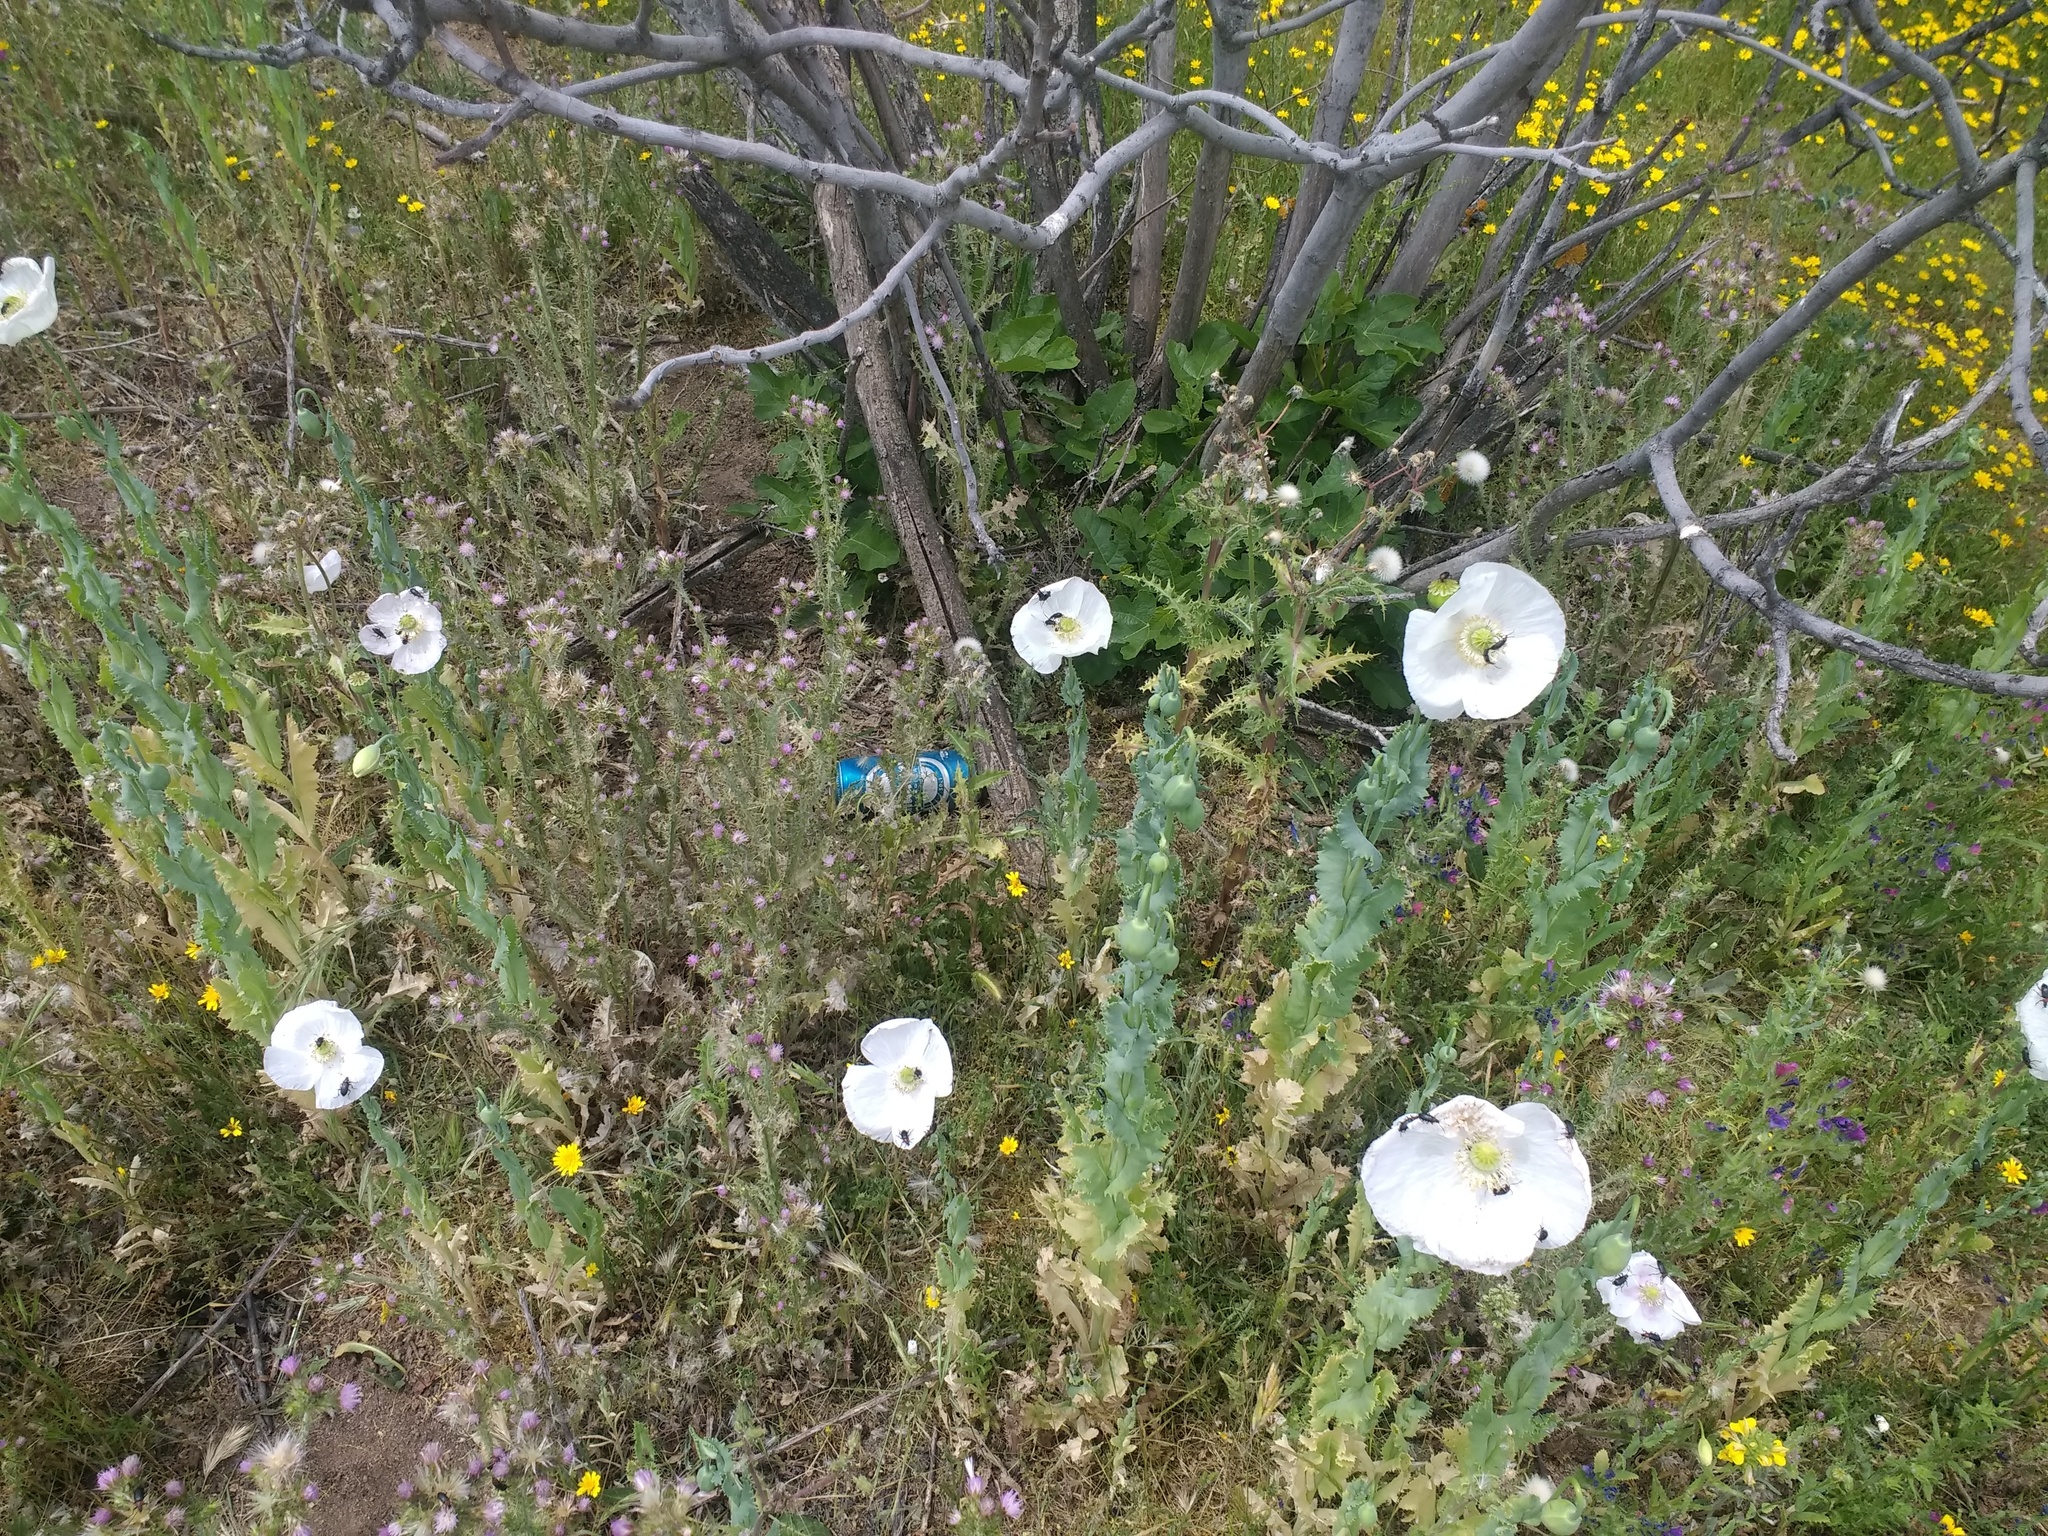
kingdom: Plantae
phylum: Tracheophyta
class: Magnoliopsida
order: Ranunculales
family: Papaveraceae
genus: Papaver
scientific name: Papaver somniferum
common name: Opium poppy
